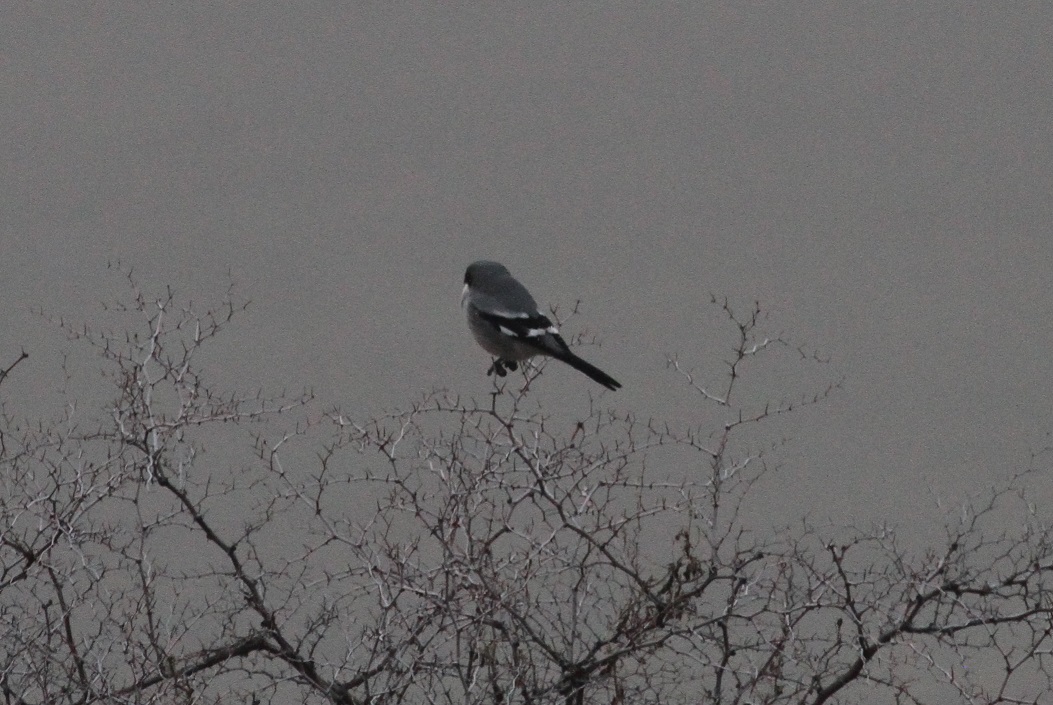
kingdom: Animalia
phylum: Chordata
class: Aves
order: Passeriformes
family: Laniidae
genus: Lanius
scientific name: Lanius excubitor
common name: Great grey shrike
